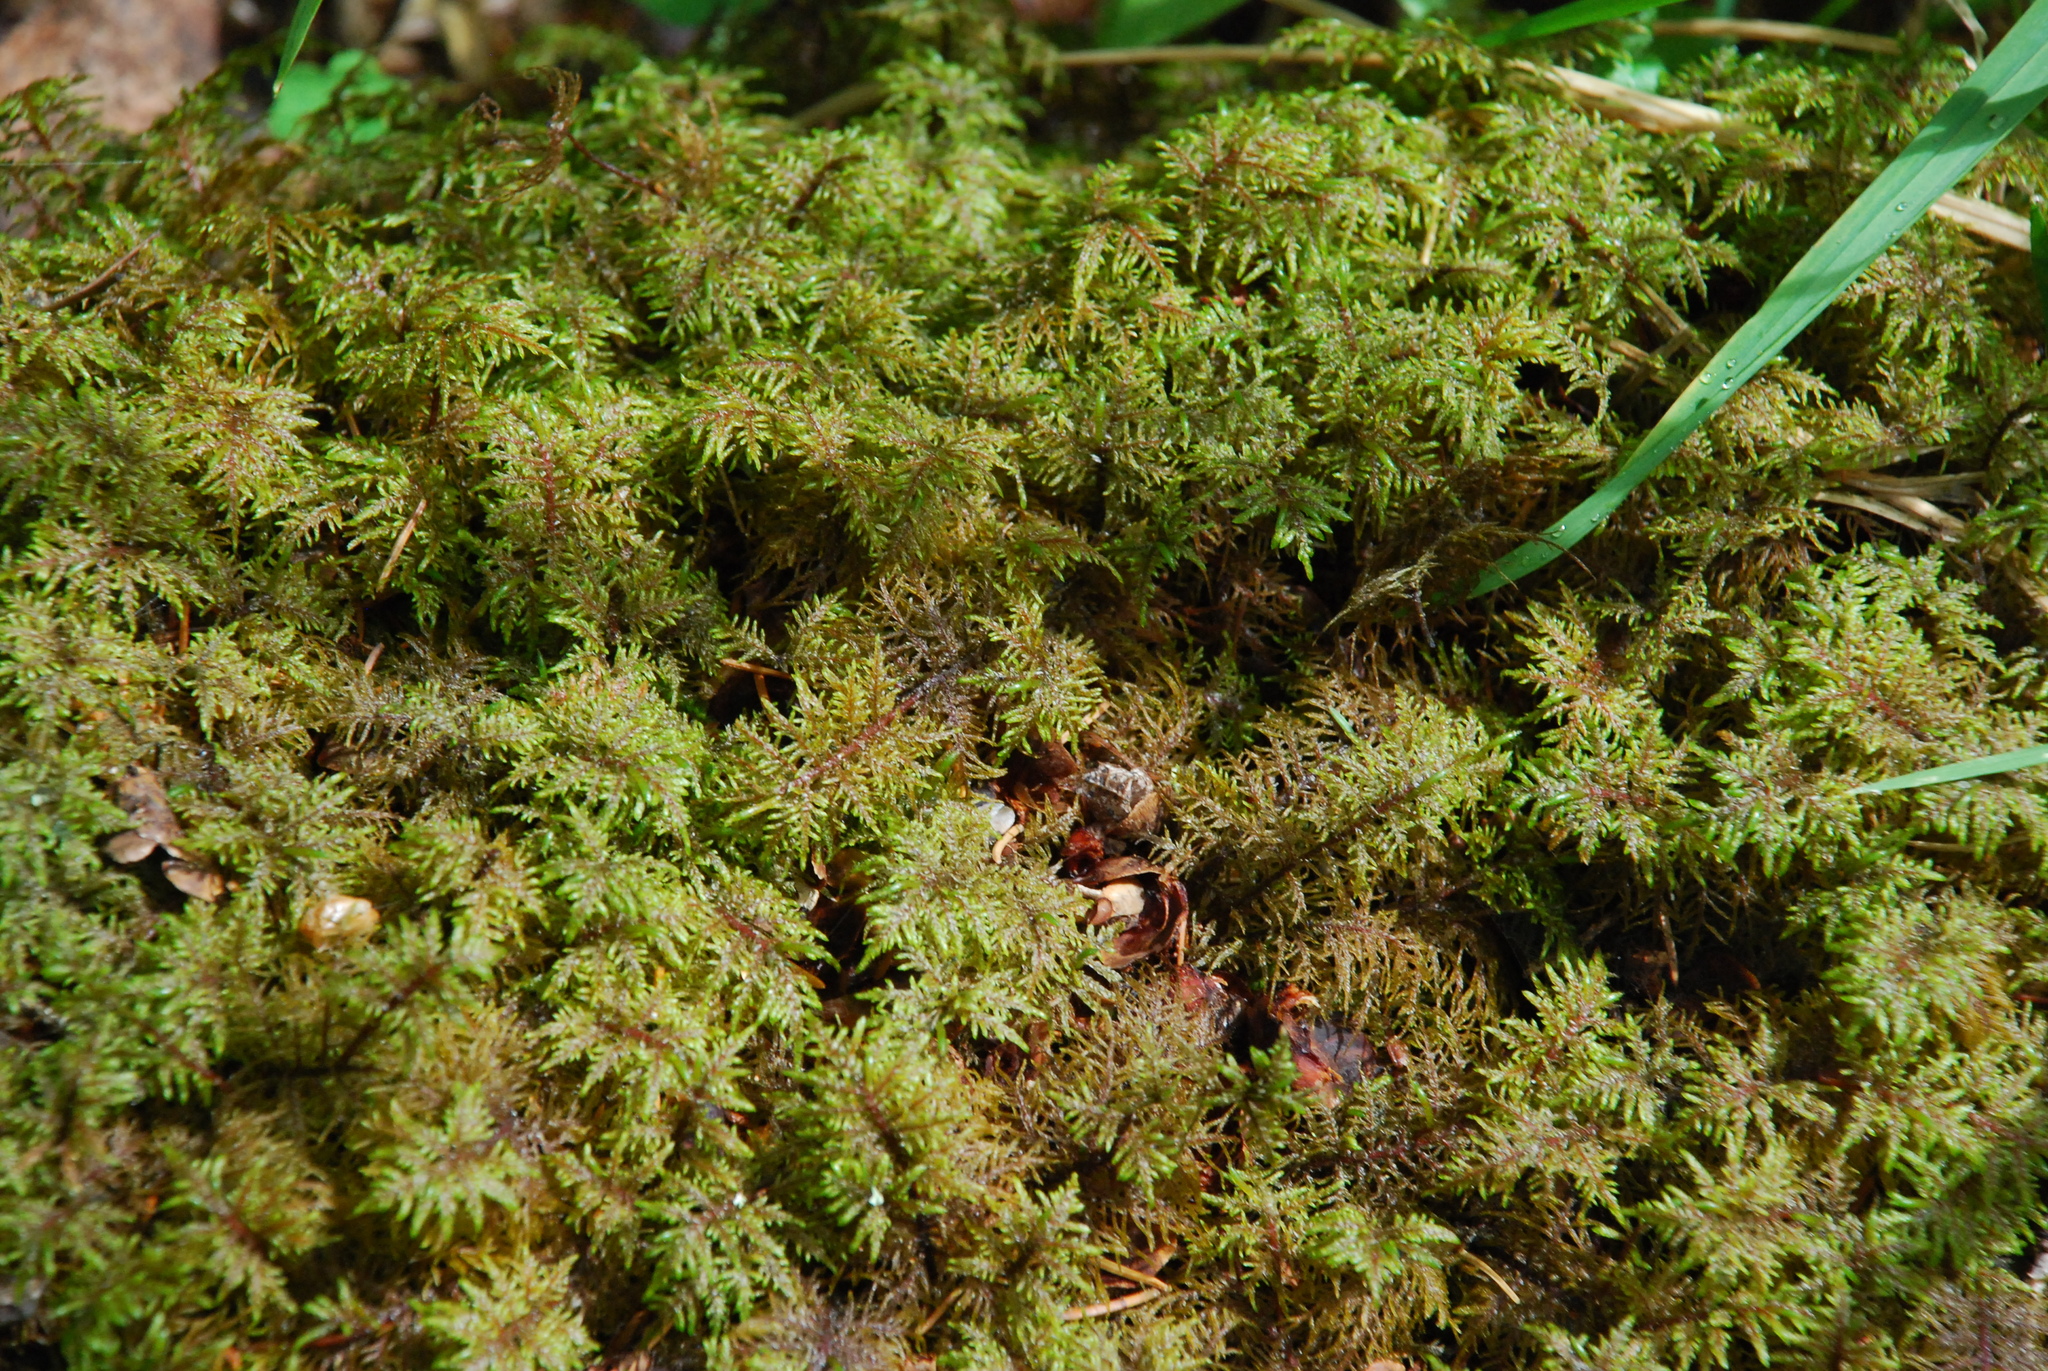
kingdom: Plantae
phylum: Bryophyta
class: Bryopsida
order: Hypnales
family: Hylocomiaceae
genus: Hylocomium
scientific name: Hylocomium splendens
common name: Stairstep moss
